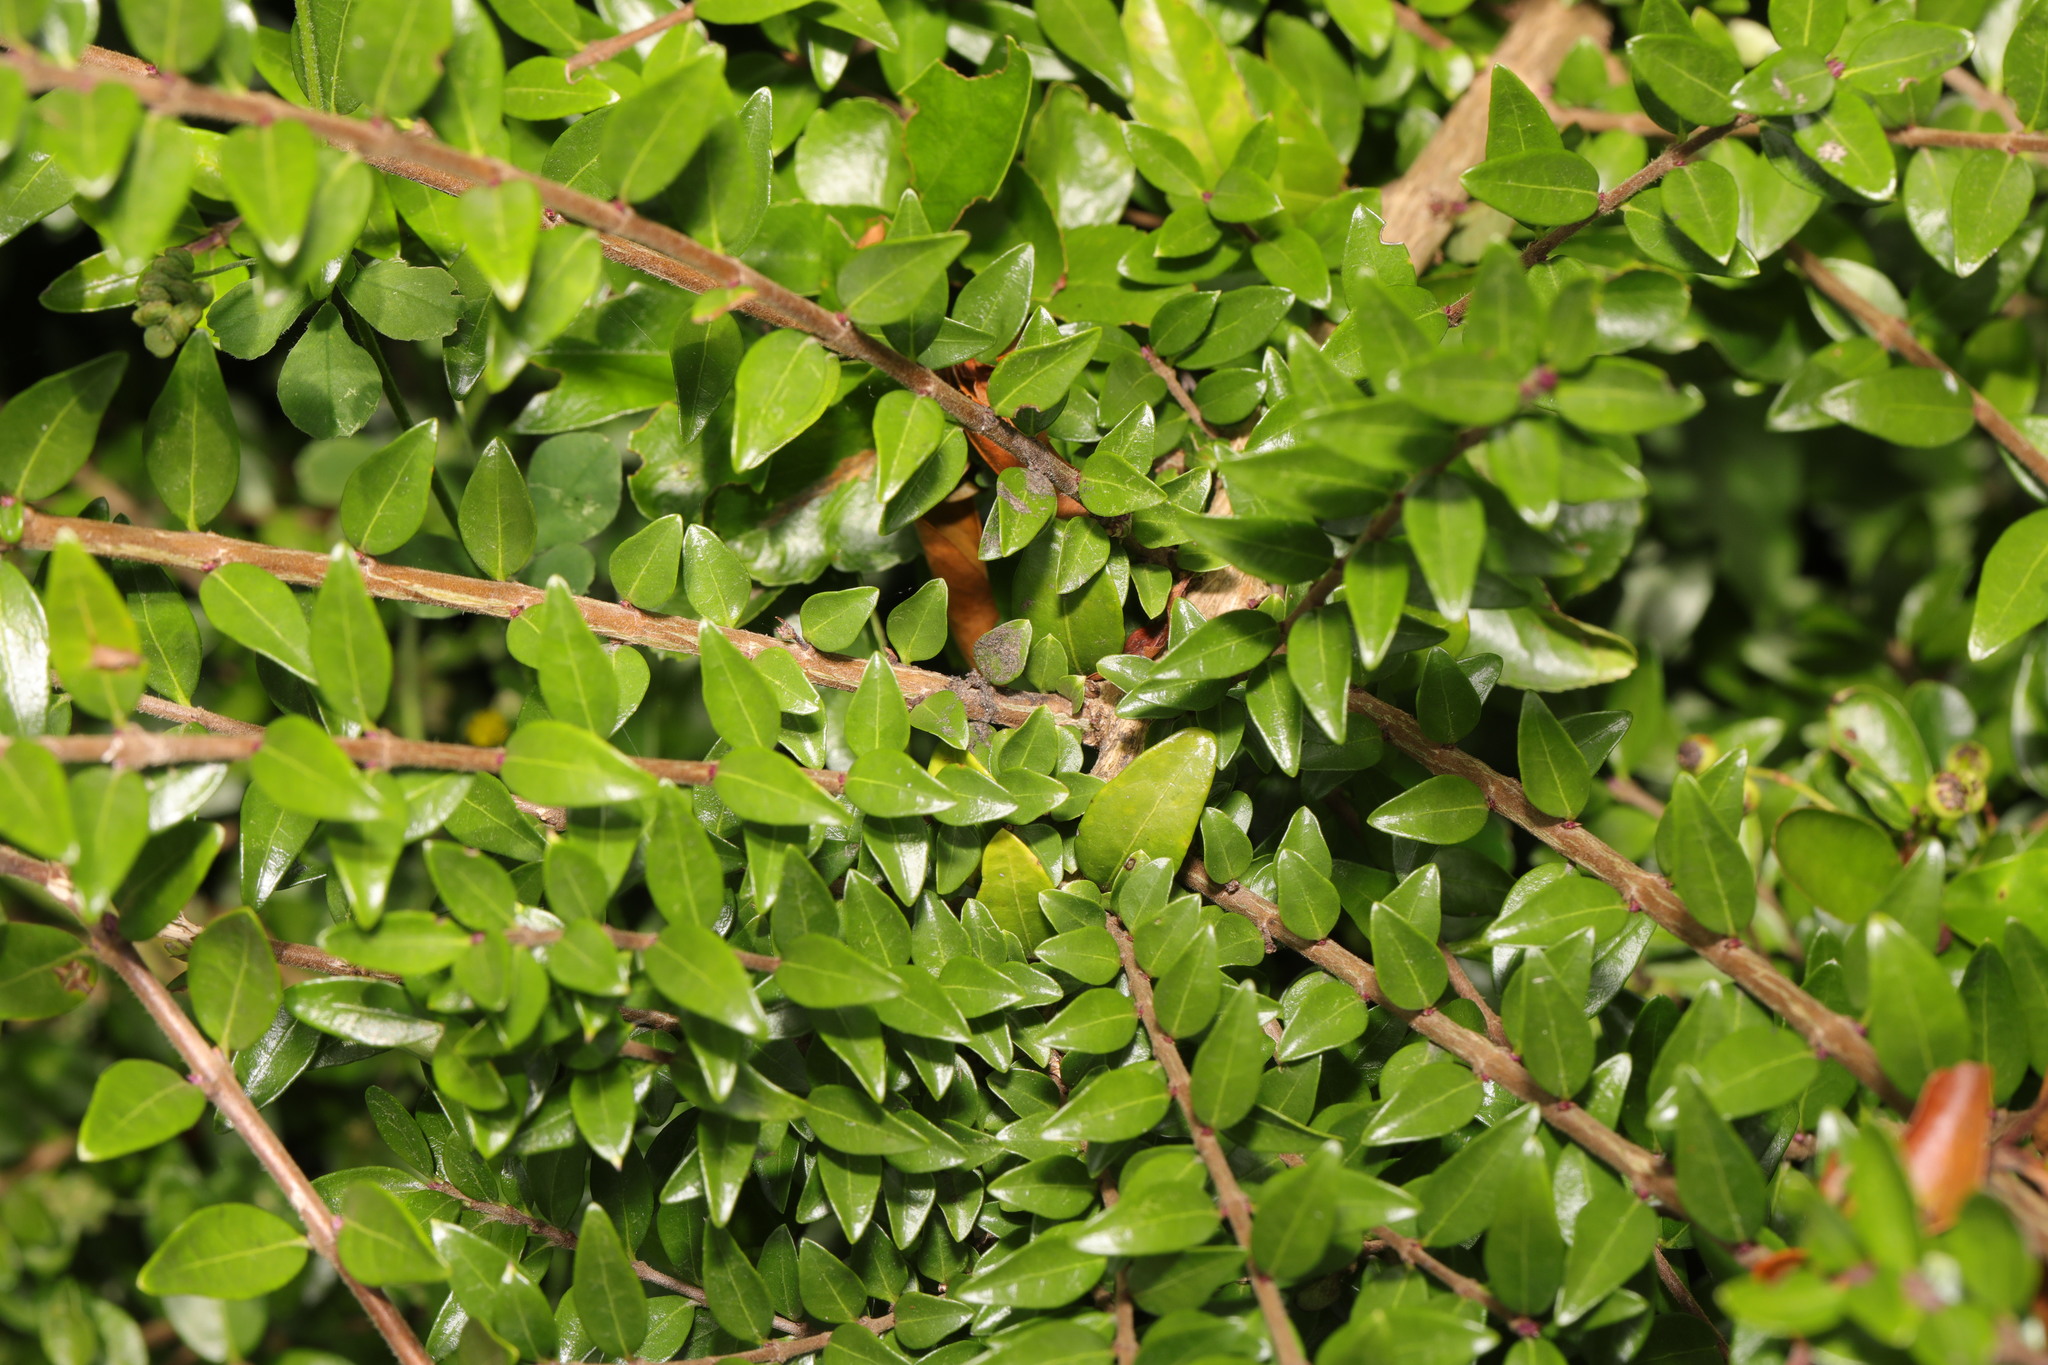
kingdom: Plantae
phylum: Tracheophyta
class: Magnoliopsida
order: Dipsacales
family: Caprifoliaceae
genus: Lonicera
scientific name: Lonicera ligustrina
